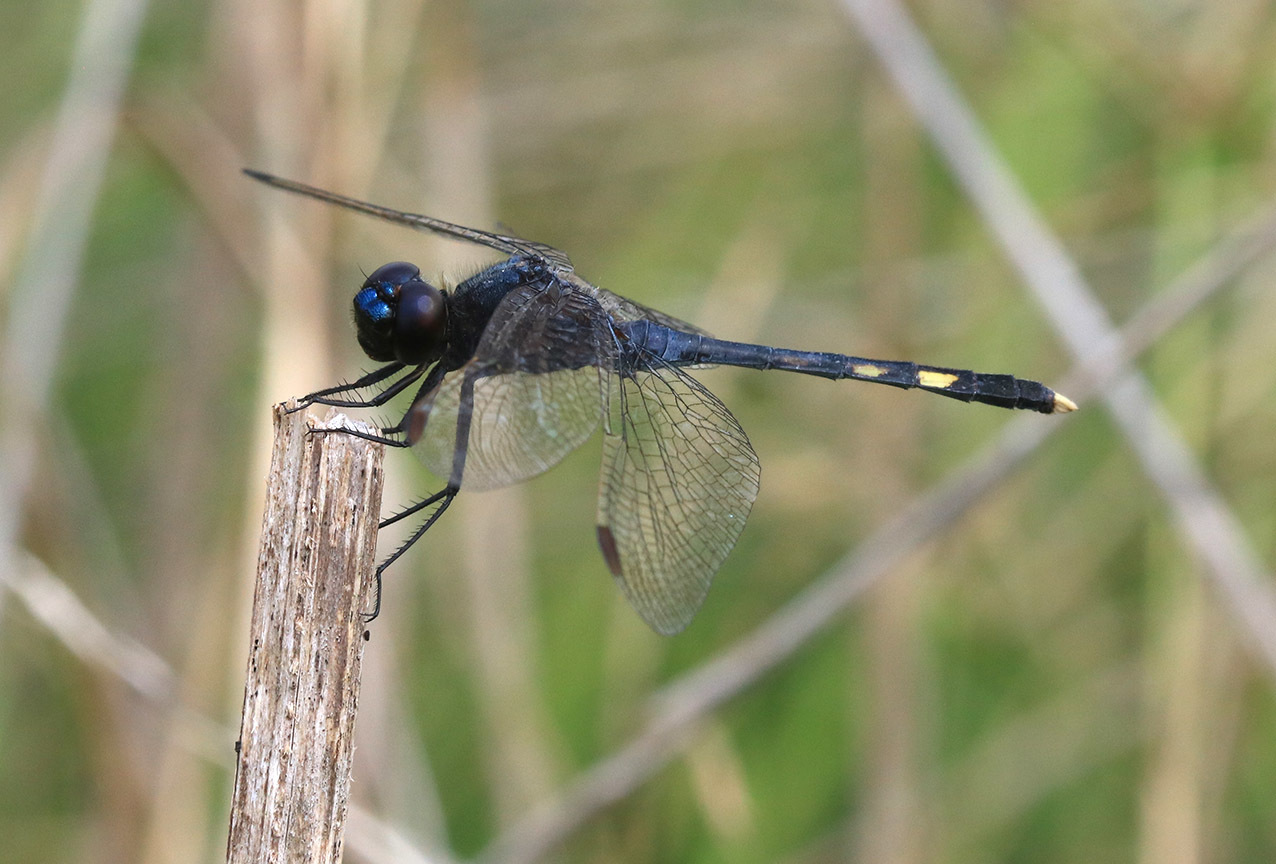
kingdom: Animalia
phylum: Arthropoda
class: Insecta
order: Odonata
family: Libellulidae
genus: Erythrodiplax
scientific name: Erythrodiplax nigricans
